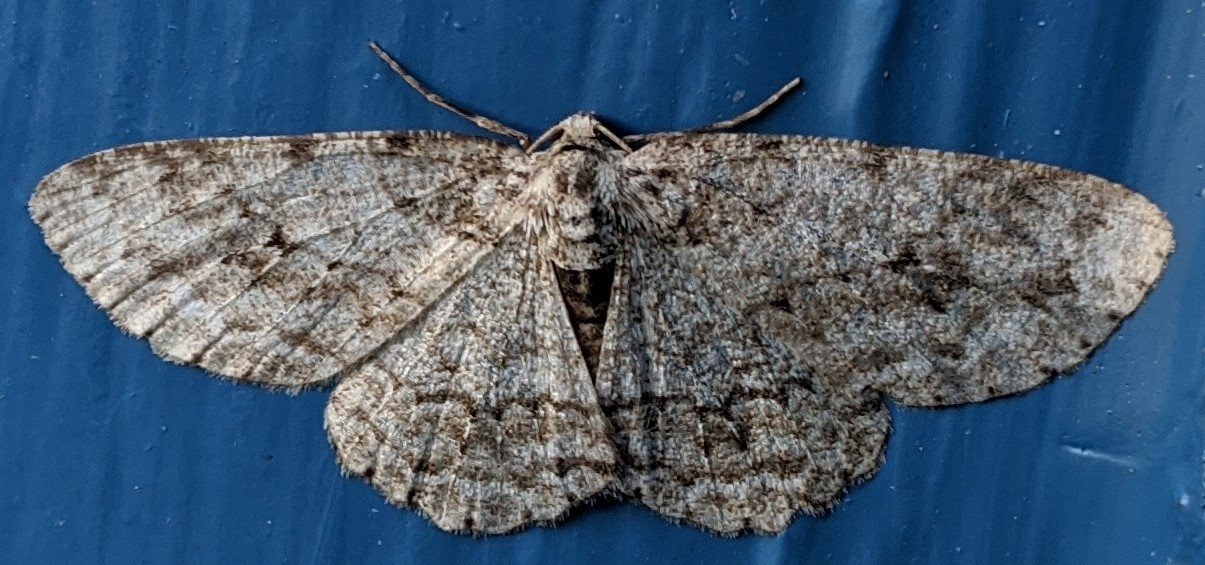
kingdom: Animalia
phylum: Arthropoda
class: Insecta
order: Lepidoptera
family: Geometridae
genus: Ectropis
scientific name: Ectropis crepuscularia
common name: Engrailed
